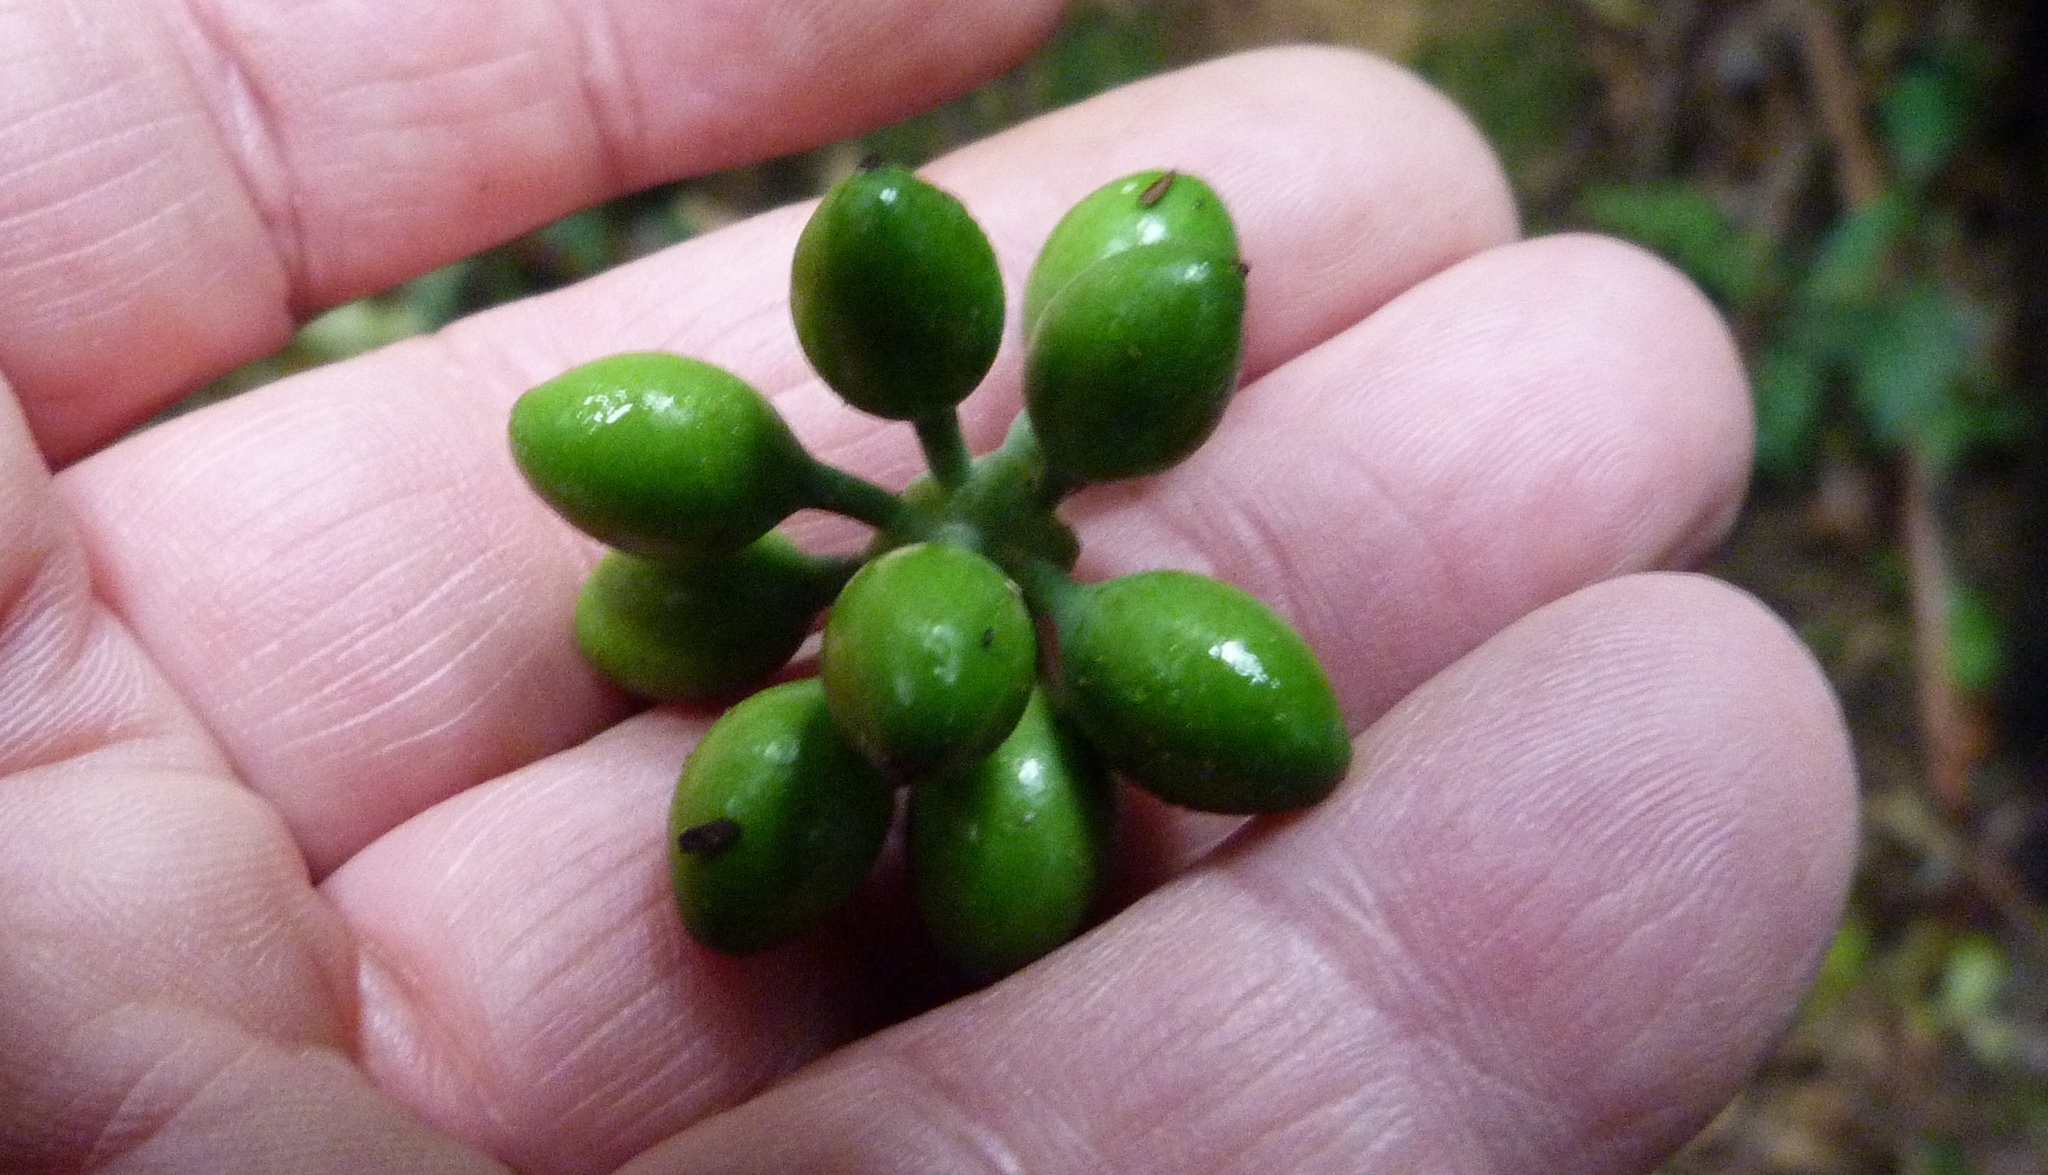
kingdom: Plantae
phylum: Tracheophyta
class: Magnoliopsida
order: Laurales
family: Monimiaceae
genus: Hedycarya
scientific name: Hedycarya arborea
